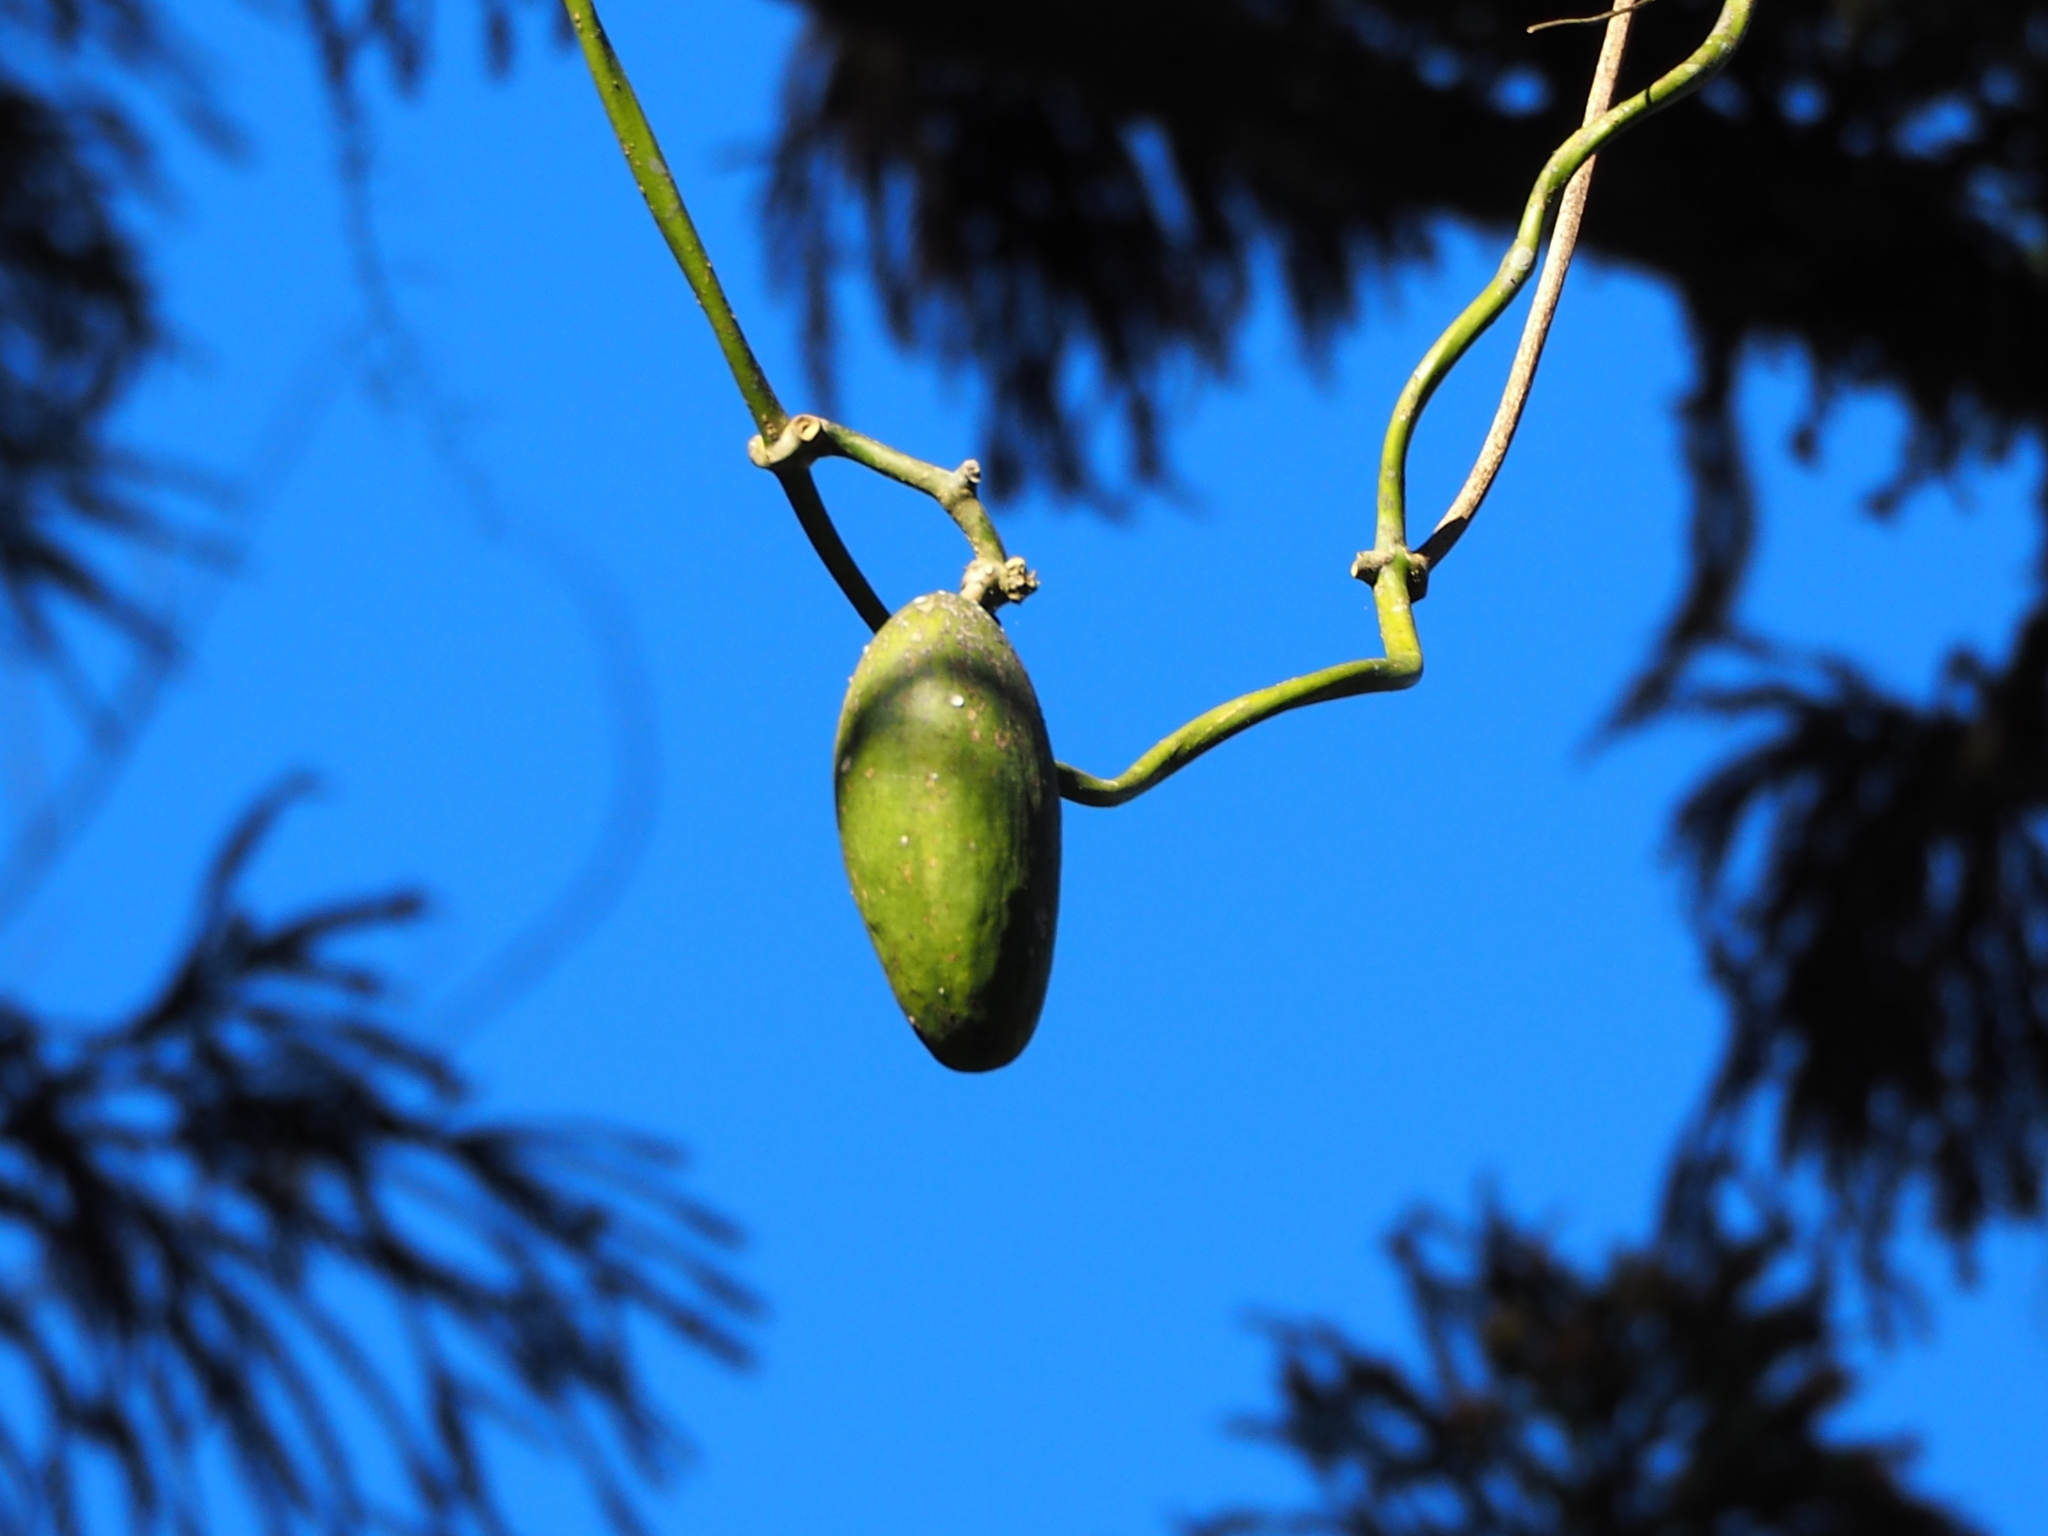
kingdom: Plantae
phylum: Tracheophyta
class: Magnoliopsida
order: Gentianales
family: Apocynaceae
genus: Sinomarsdenia
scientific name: Sinomarsdenia formosana
